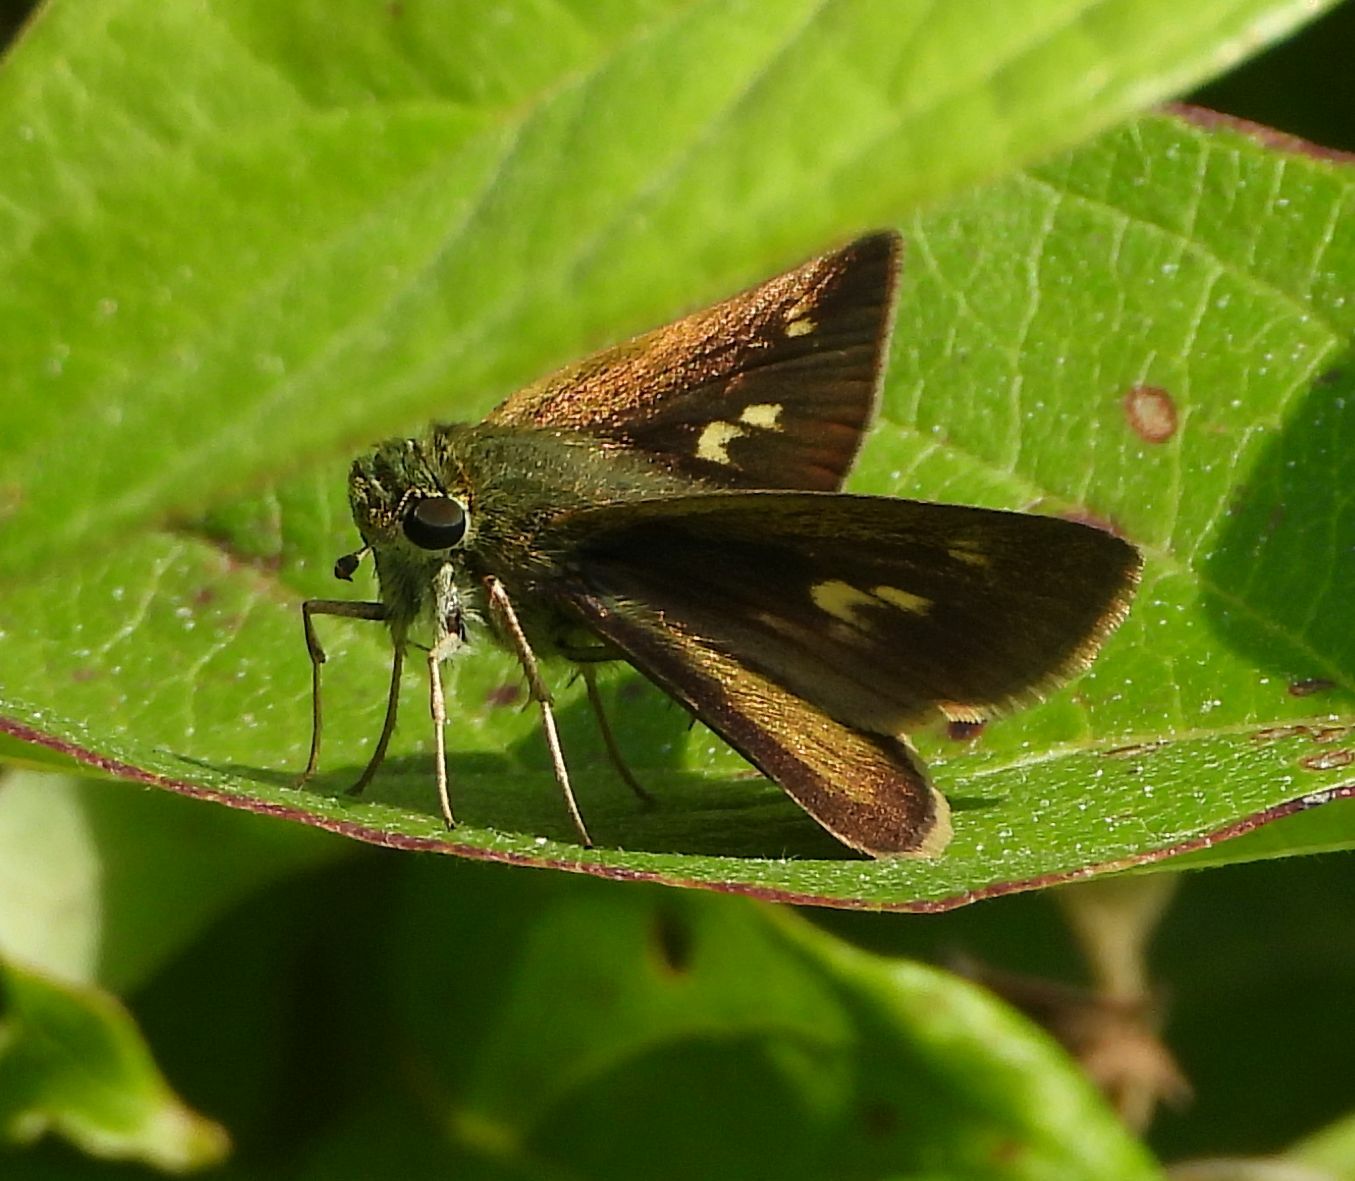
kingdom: Animalia
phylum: Arthropoda
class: Insecta
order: Lepidoptera
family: Hesperiidae
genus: Polites
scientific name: Polites egeremet
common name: Northern broken-dash
